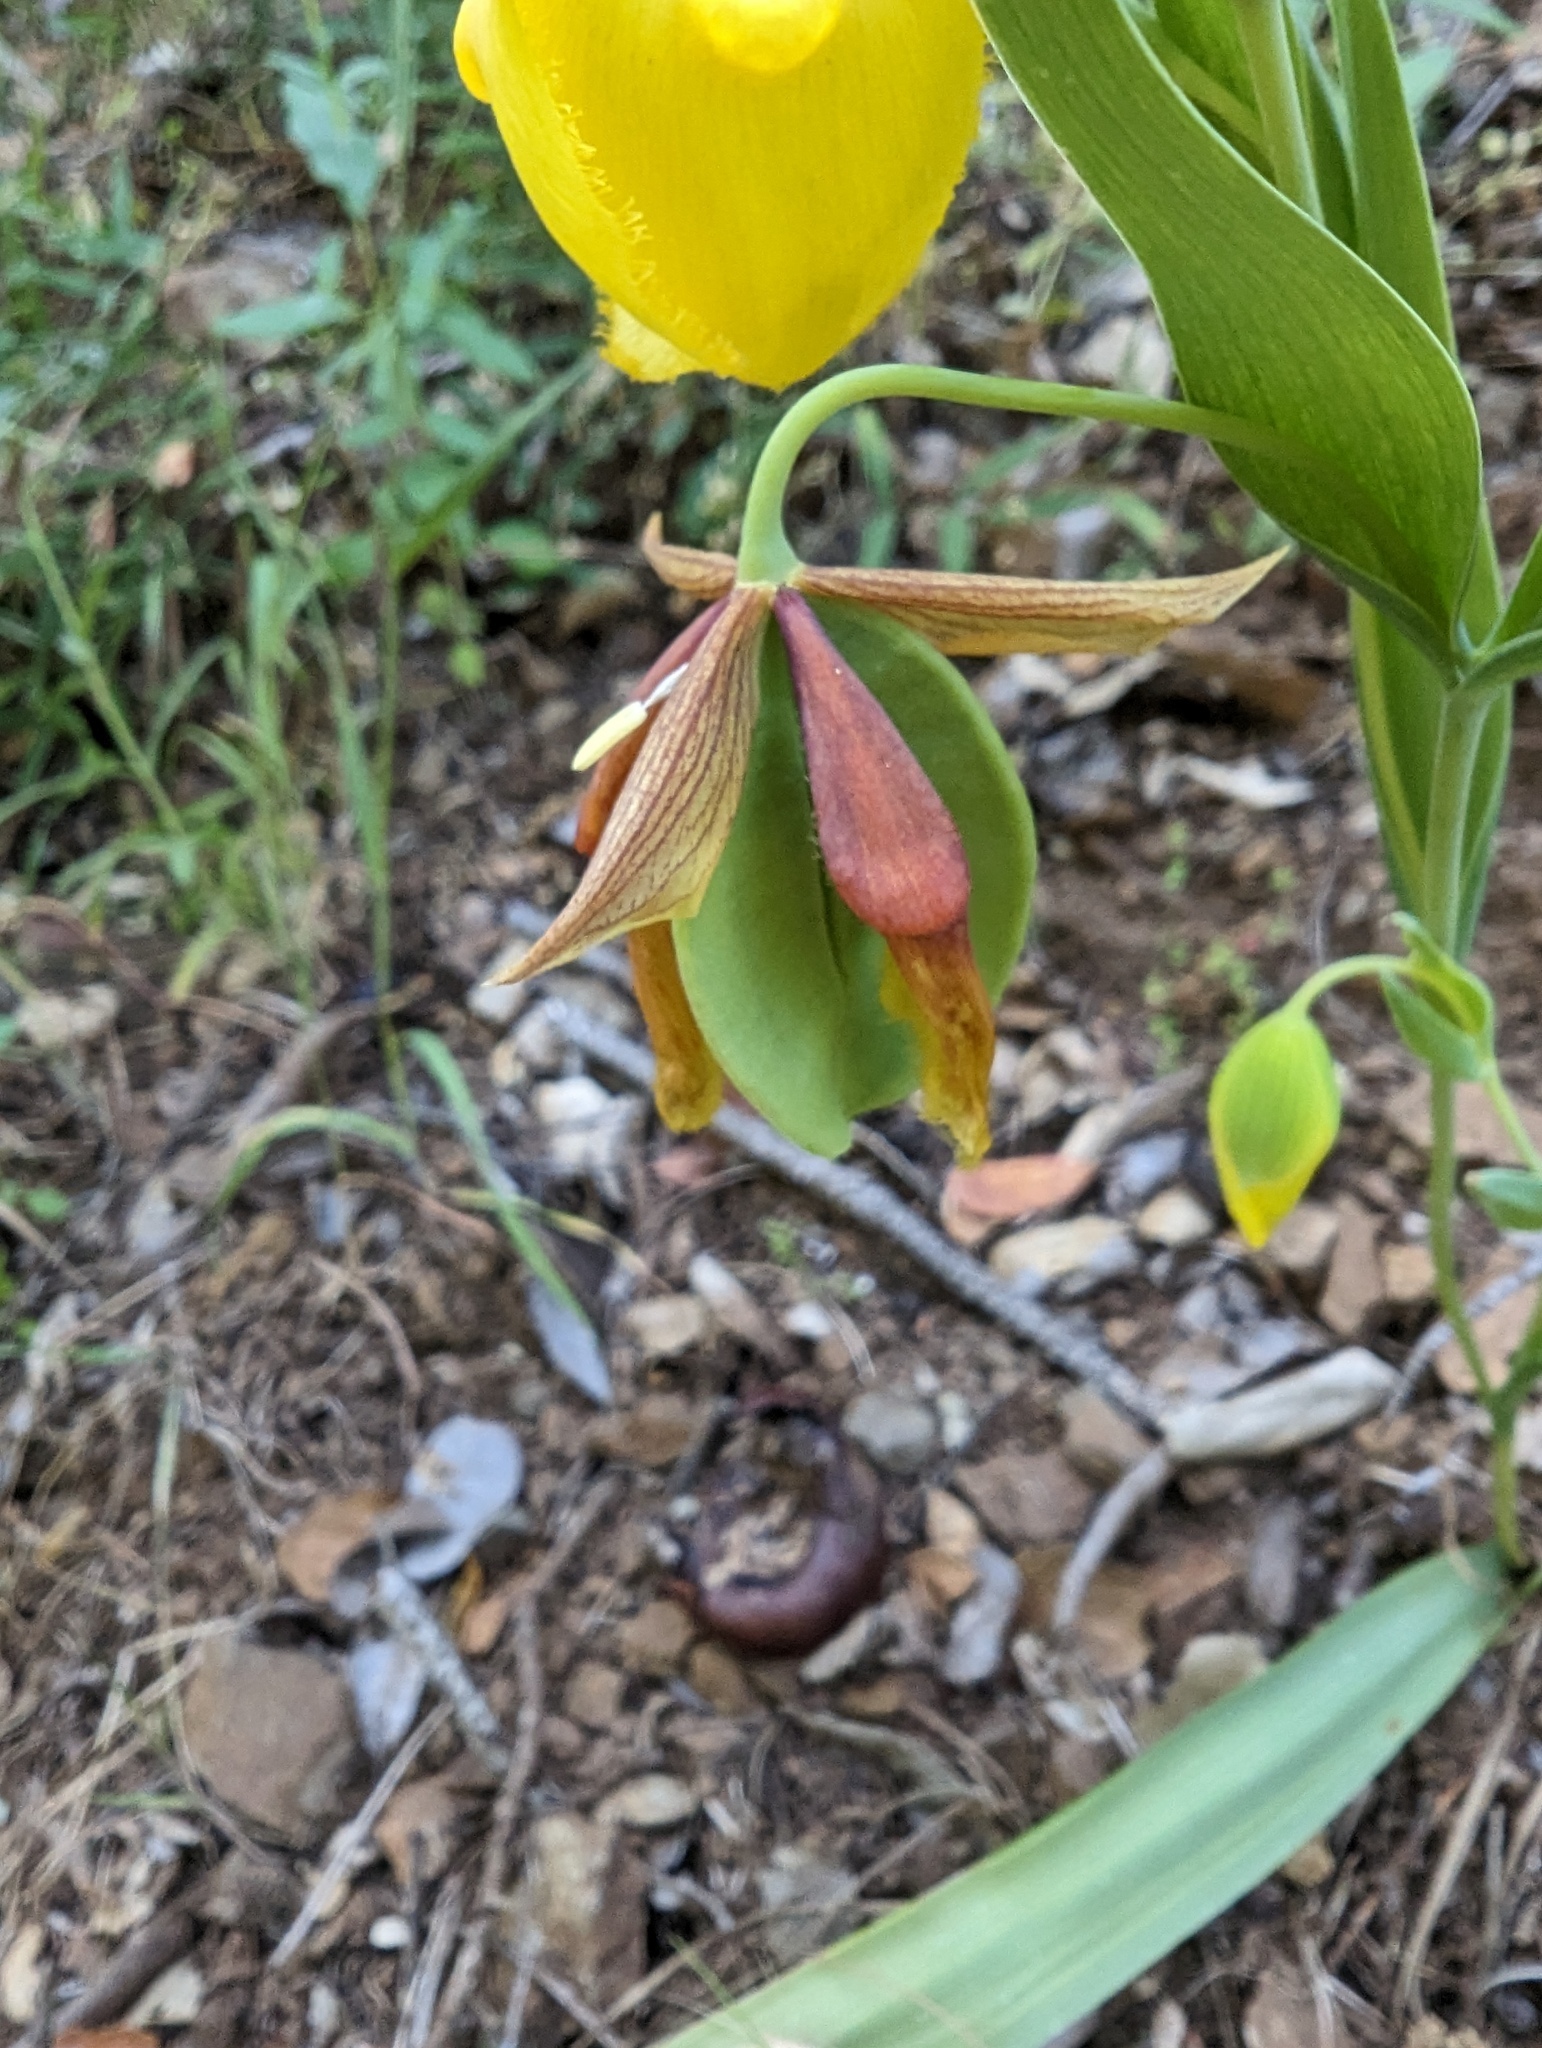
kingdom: Plantae
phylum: Tracheophyta
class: Liliopsida
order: Liliales
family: Liliaceae
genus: Calochortus
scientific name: Calochortus pulchellus
